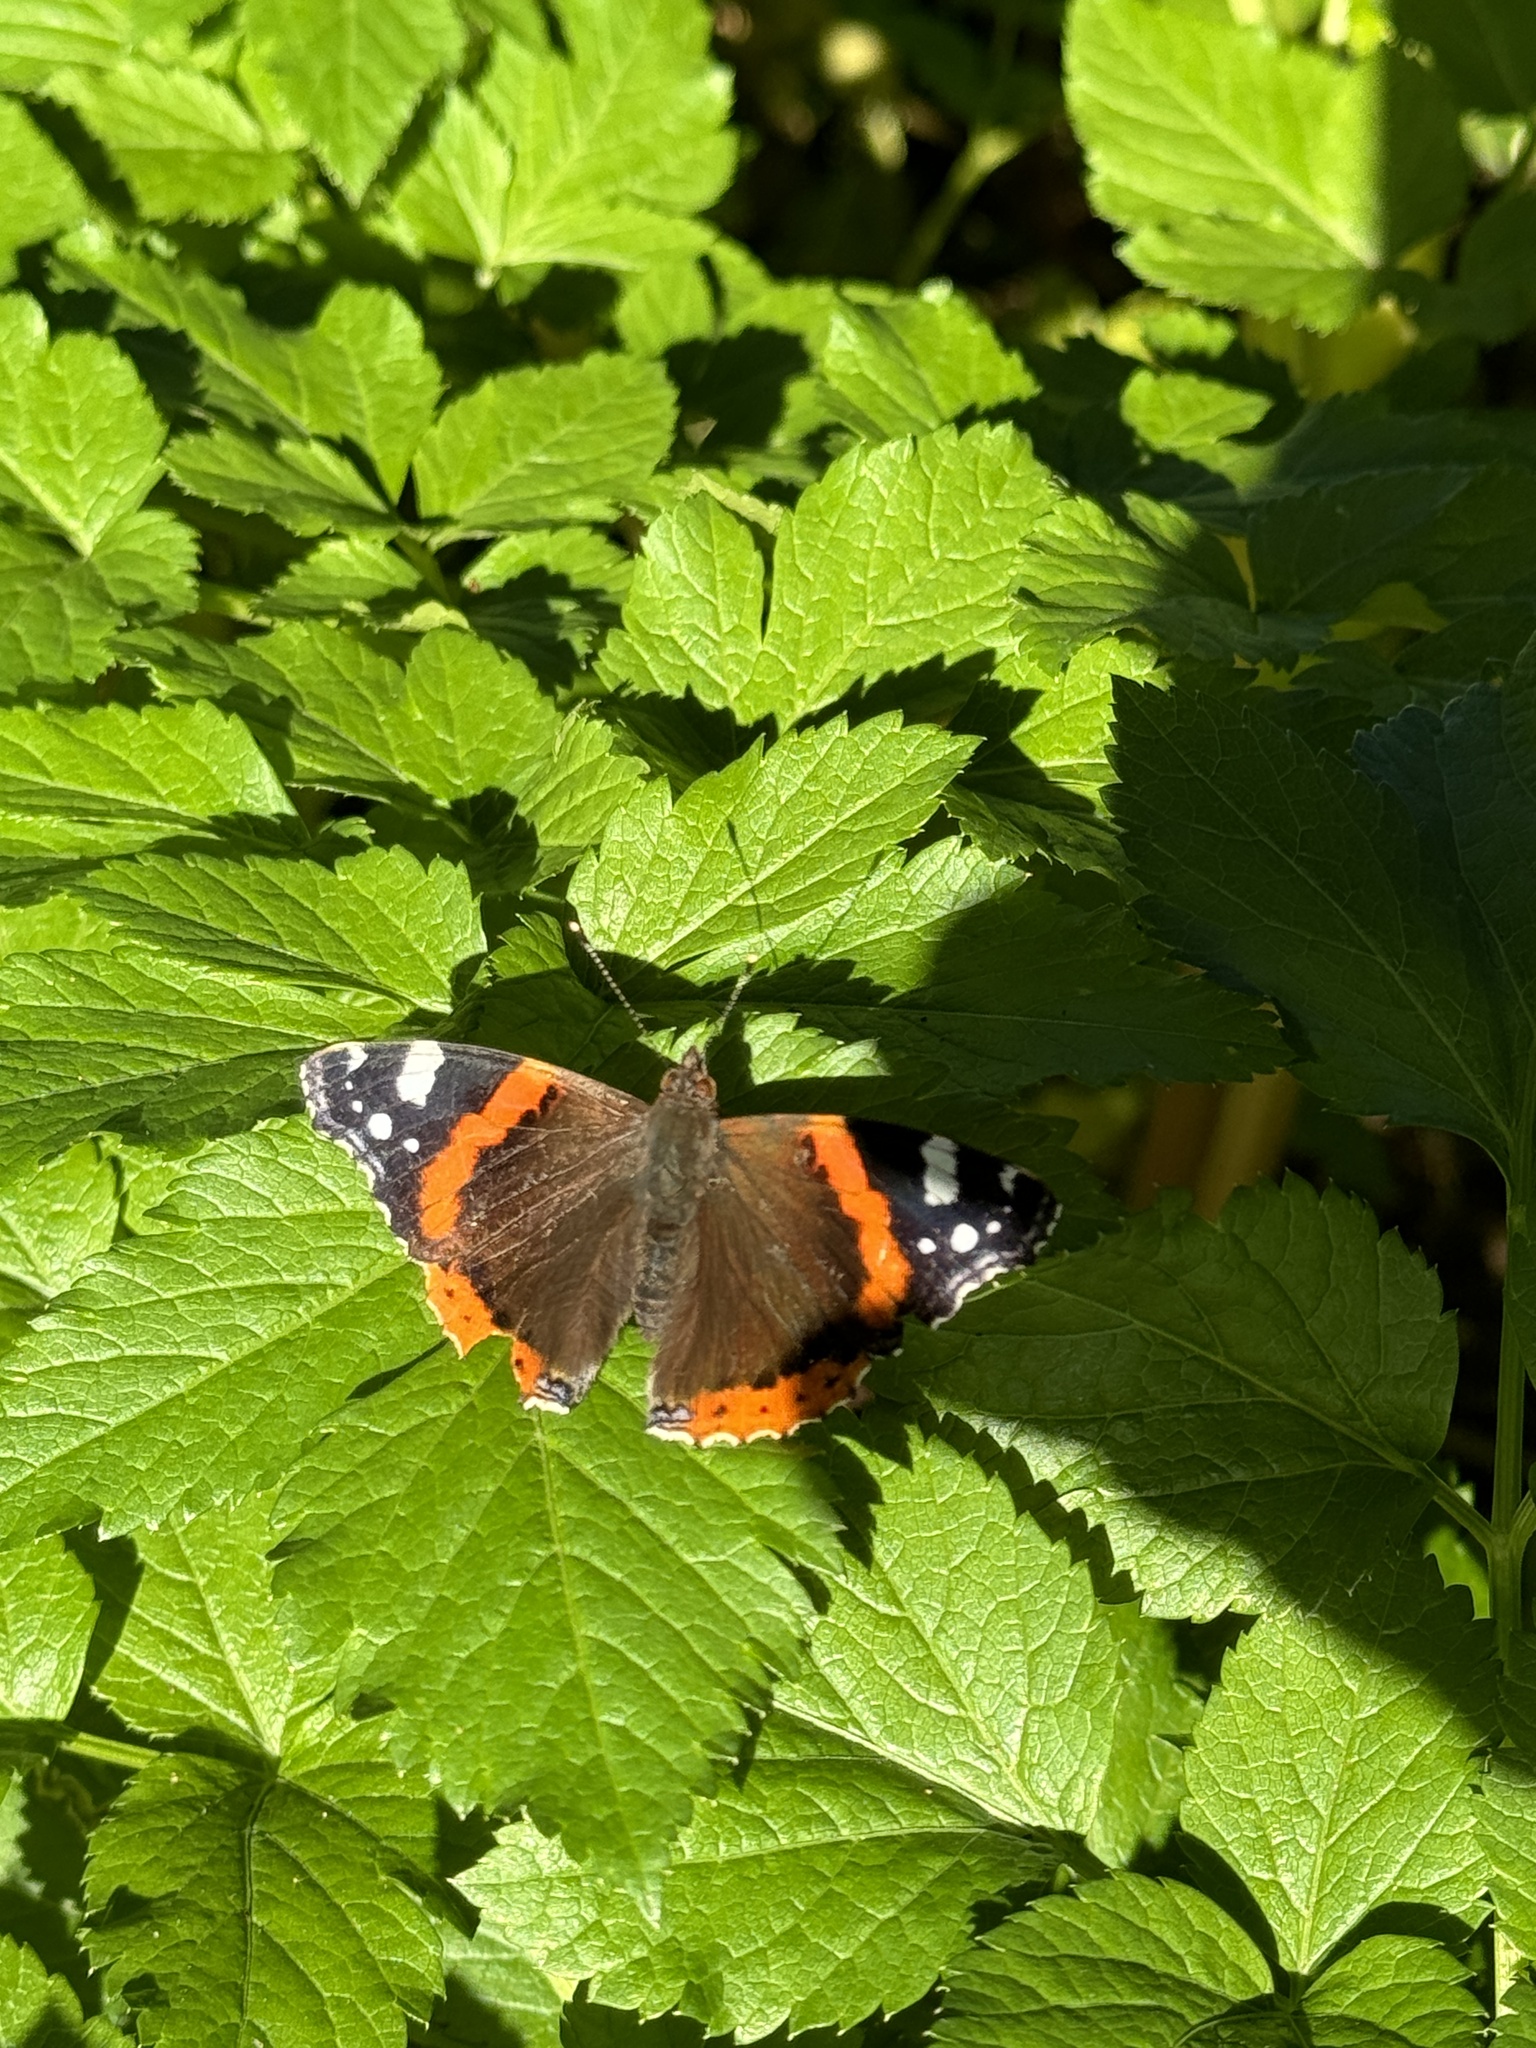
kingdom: Animalia
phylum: Arthropoda
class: Insecta
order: Lepidoptera
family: Nymphalidae
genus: Vanessa
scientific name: Vanessa atalanta
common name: Red admiral
